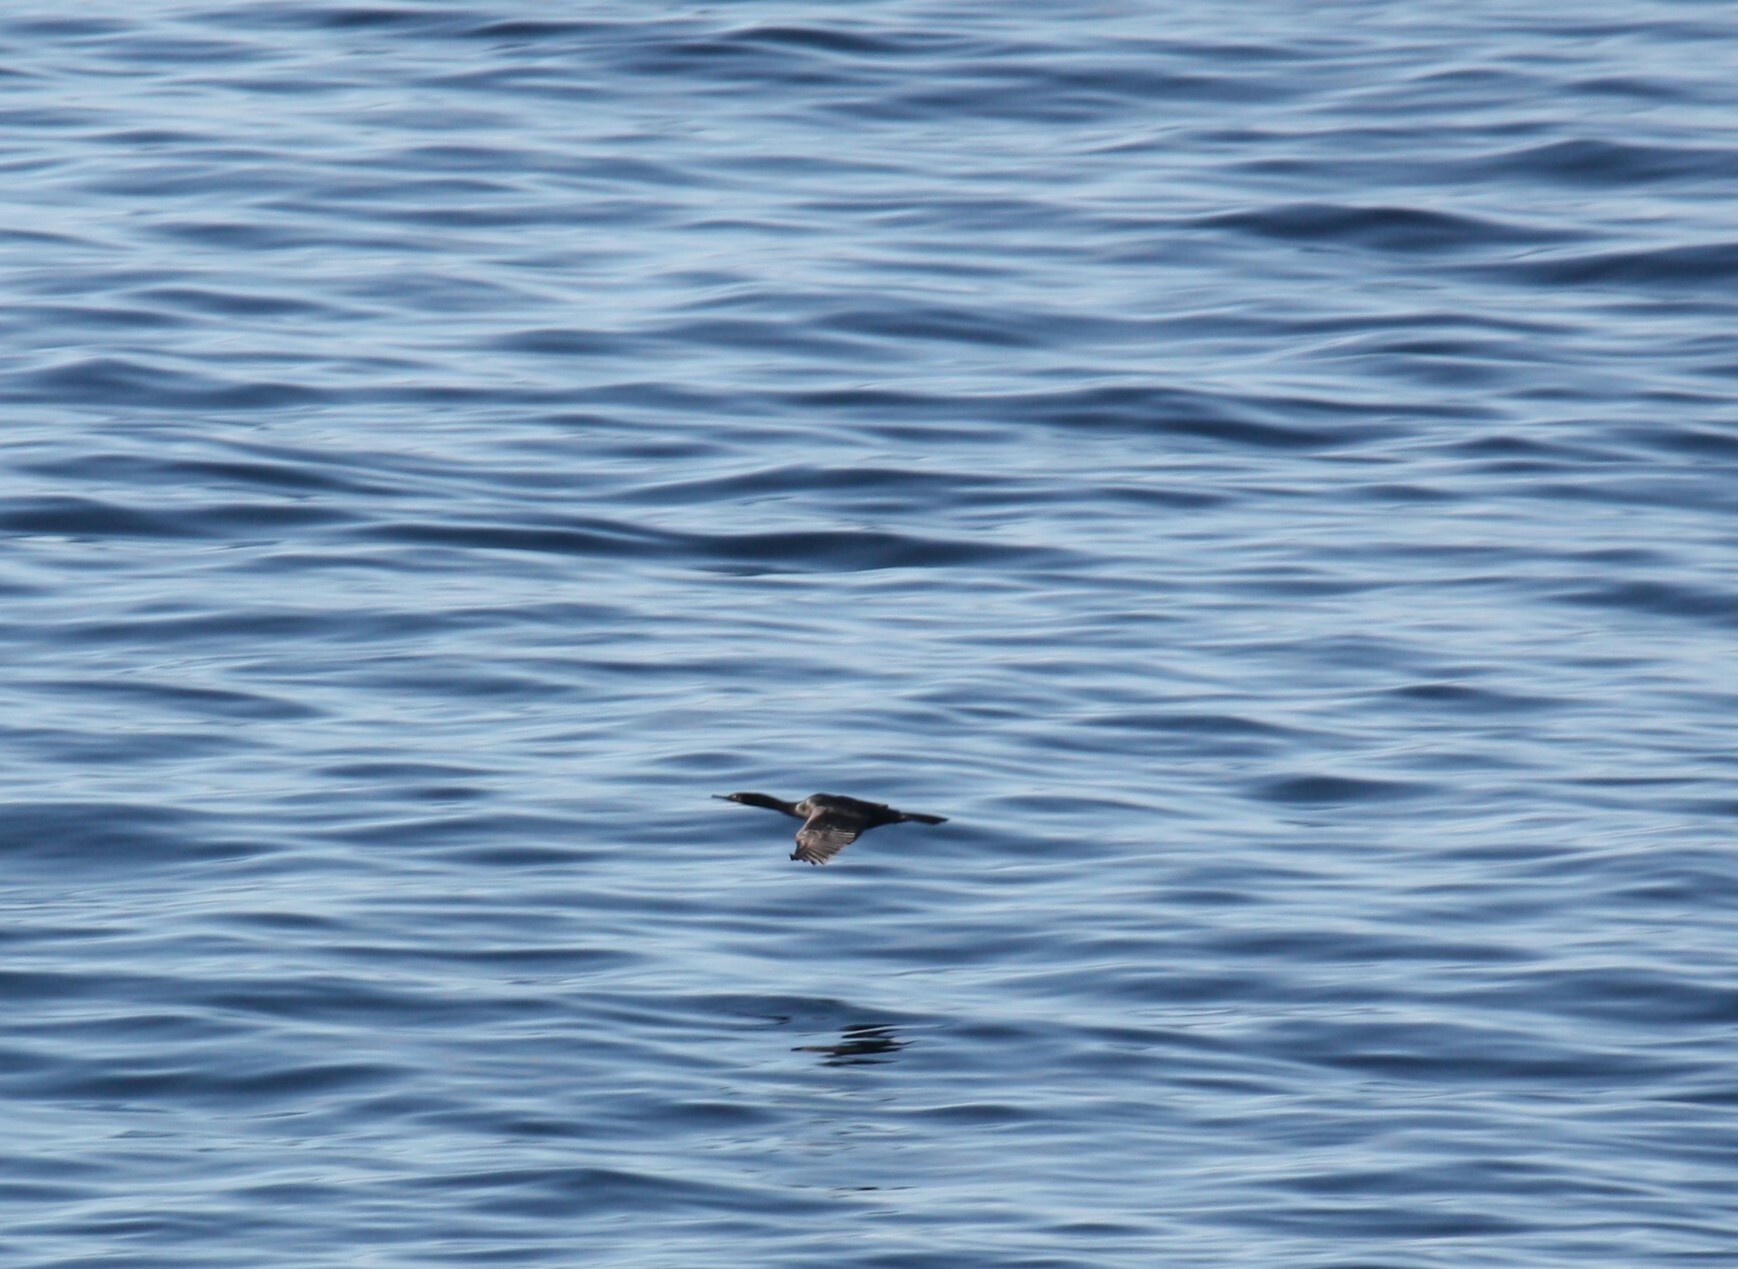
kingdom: Animalia
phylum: Chordata
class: Aves
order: Suliformes
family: Phalacrocoracidae
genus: Phalacrocorax
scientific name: Phalacrocorax pelagicus
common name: Pelagic cormorant
